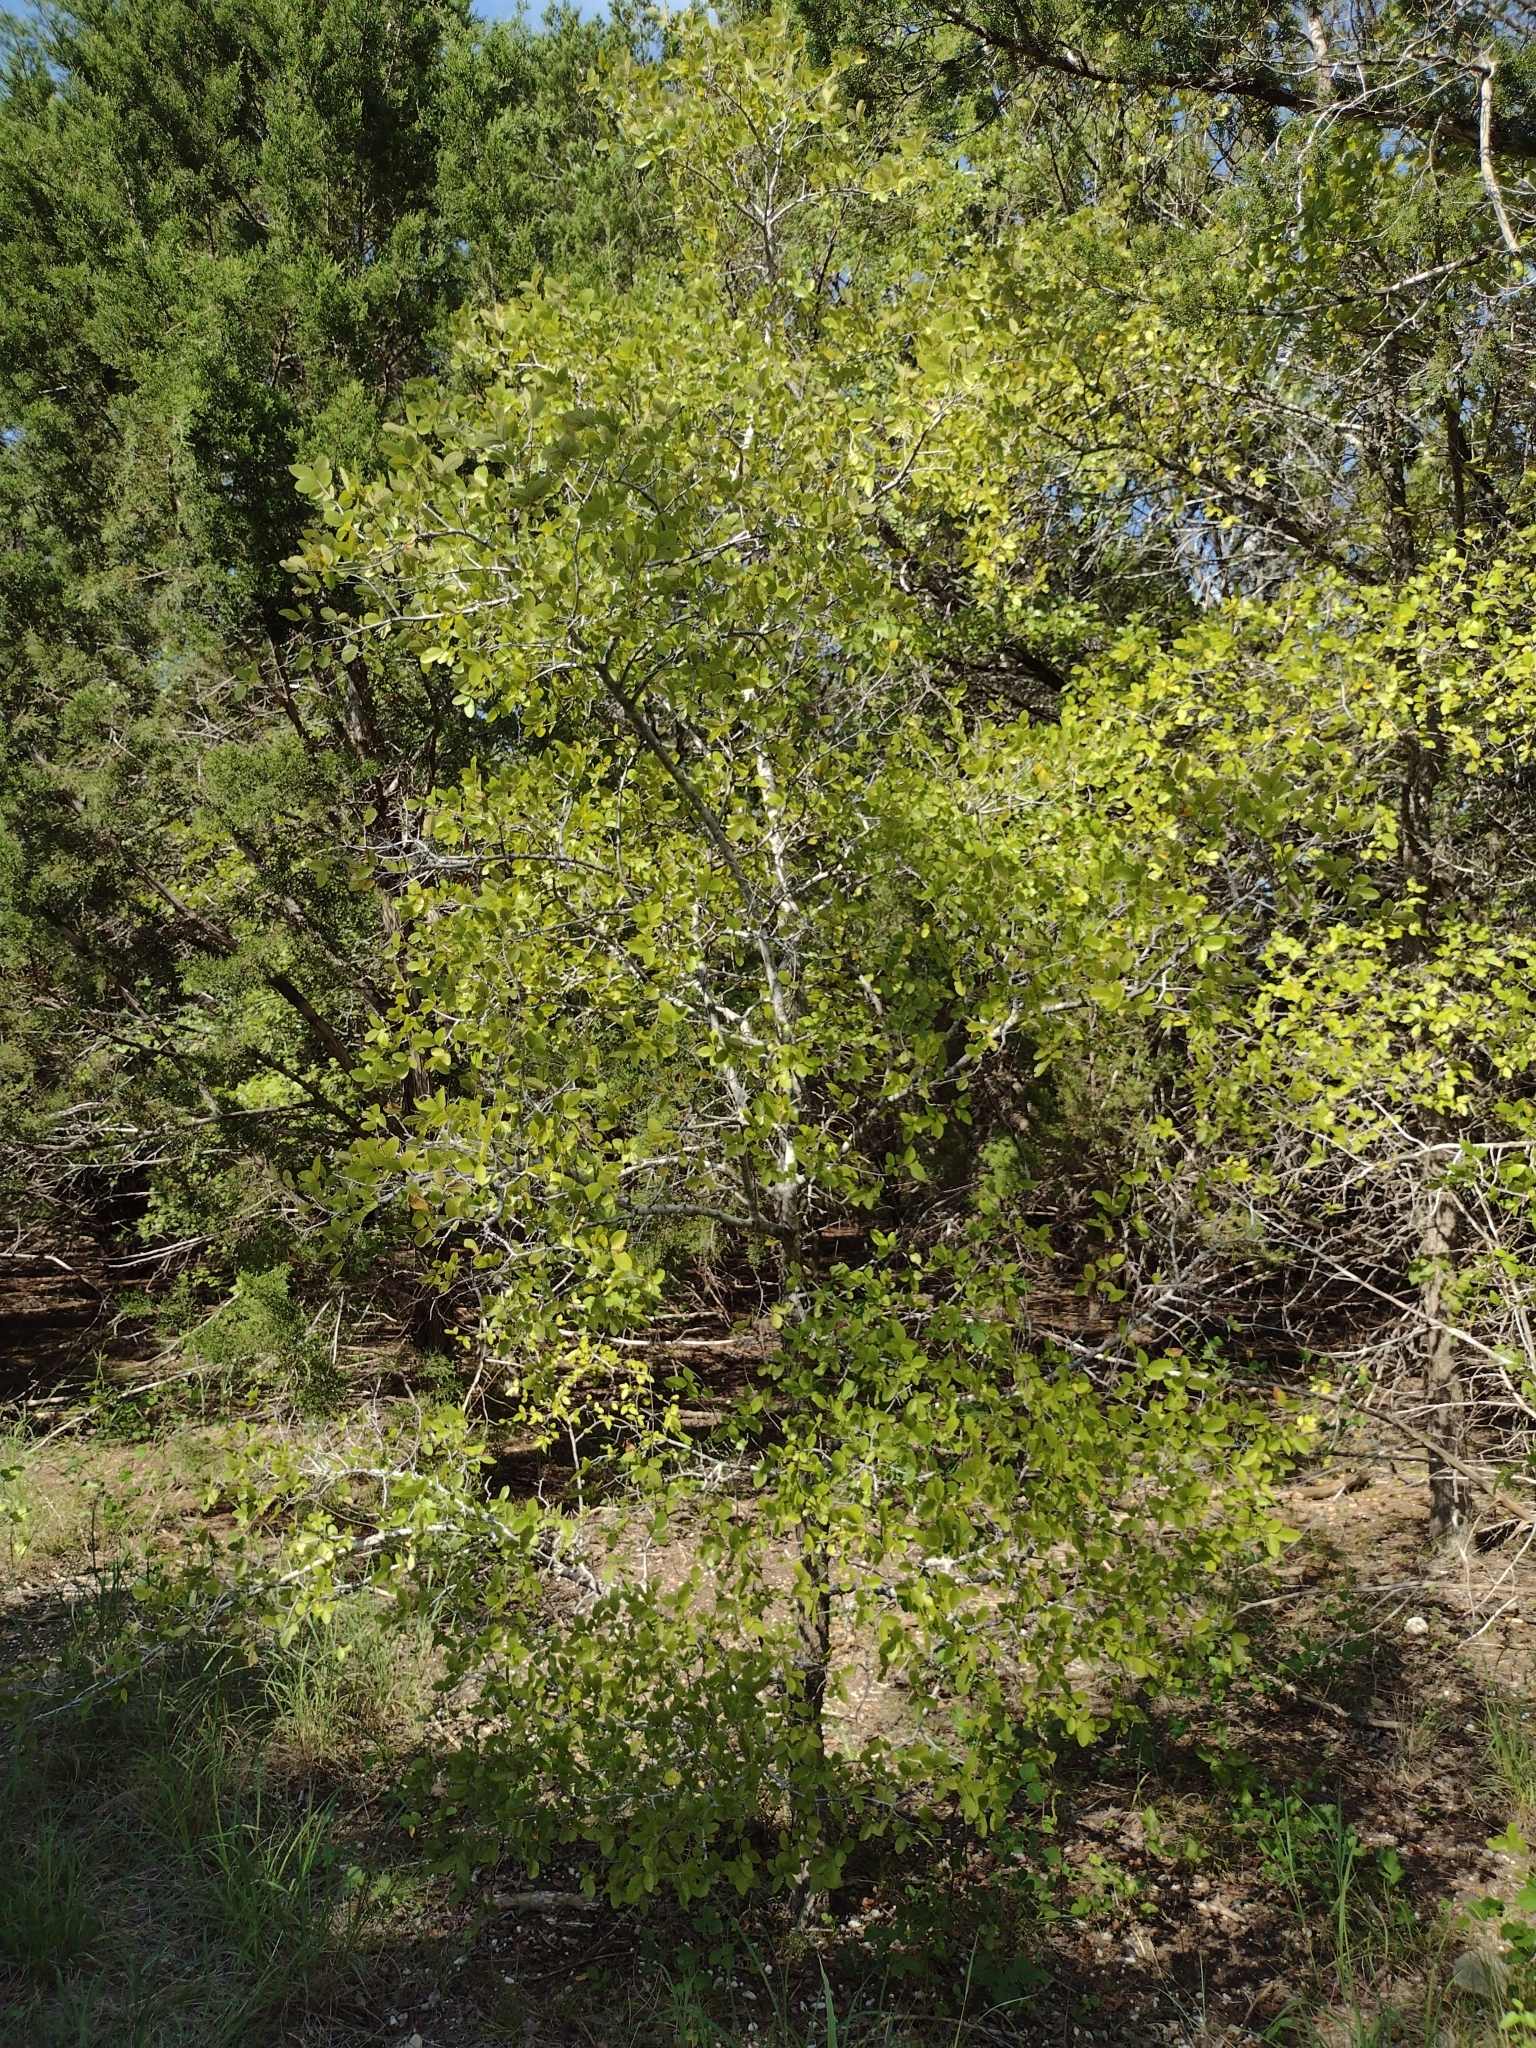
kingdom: Plantae
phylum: Tracheophyta
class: Magnoliopsida
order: Rosales
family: Ulmaceae
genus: Ulmus
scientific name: Ulmus crassifolia
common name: Basket elm
